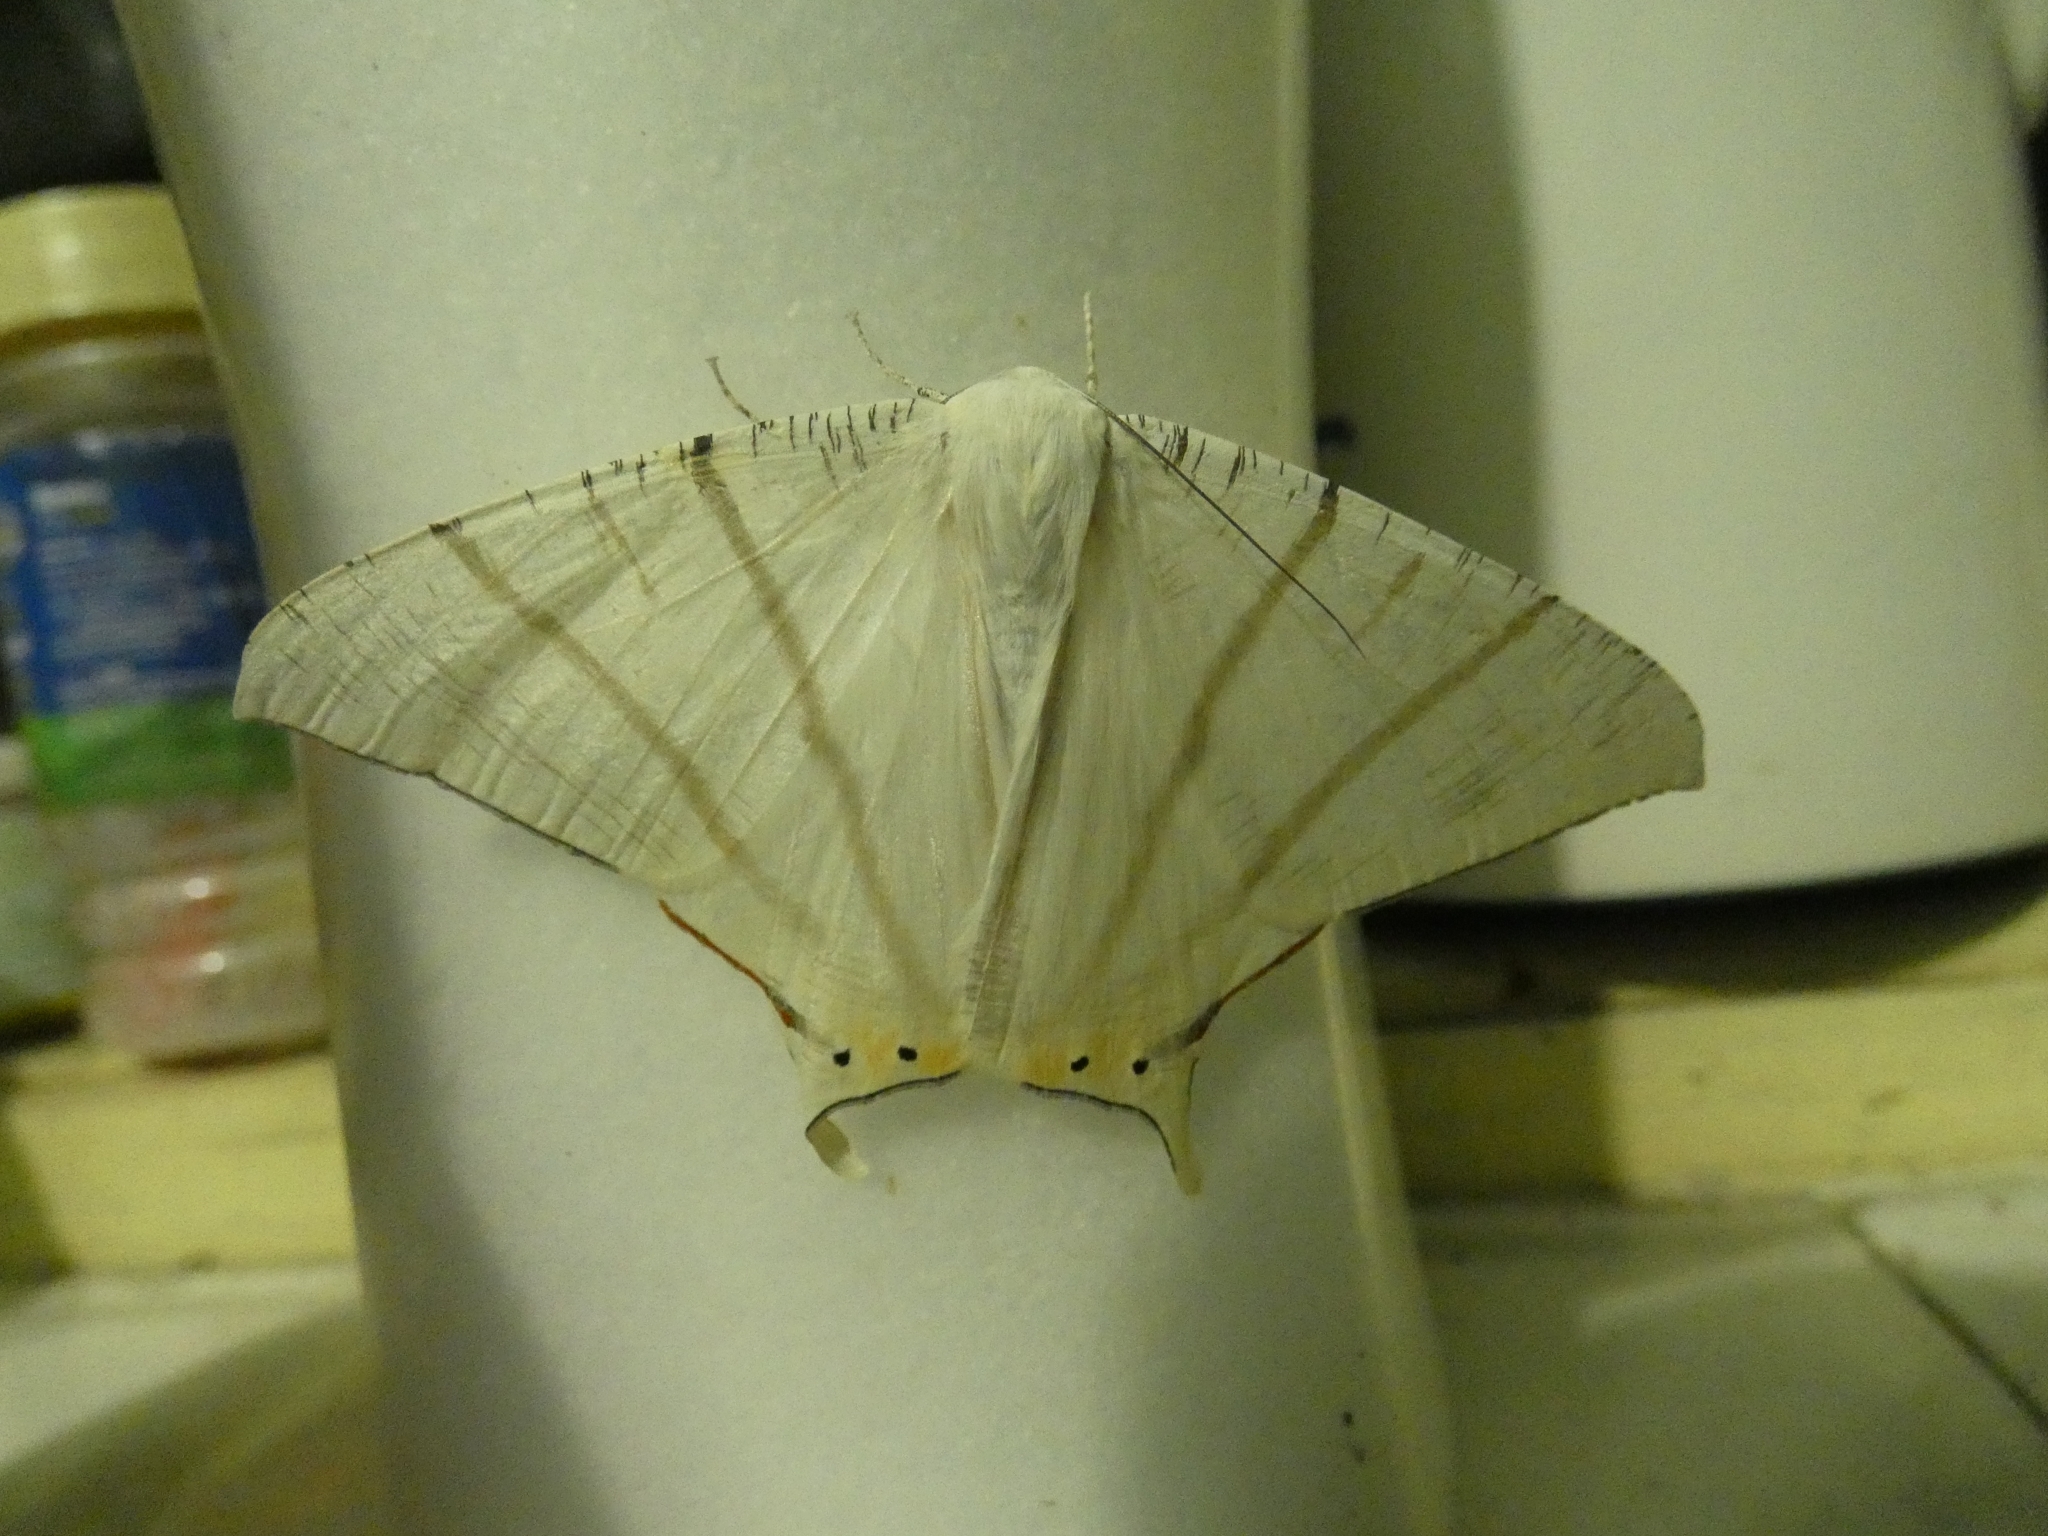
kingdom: Animalia
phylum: Arthropoda
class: Insecta
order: Lepidoptera
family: Geometridae
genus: Ourapteryx
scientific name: Ourapteryx marginata
